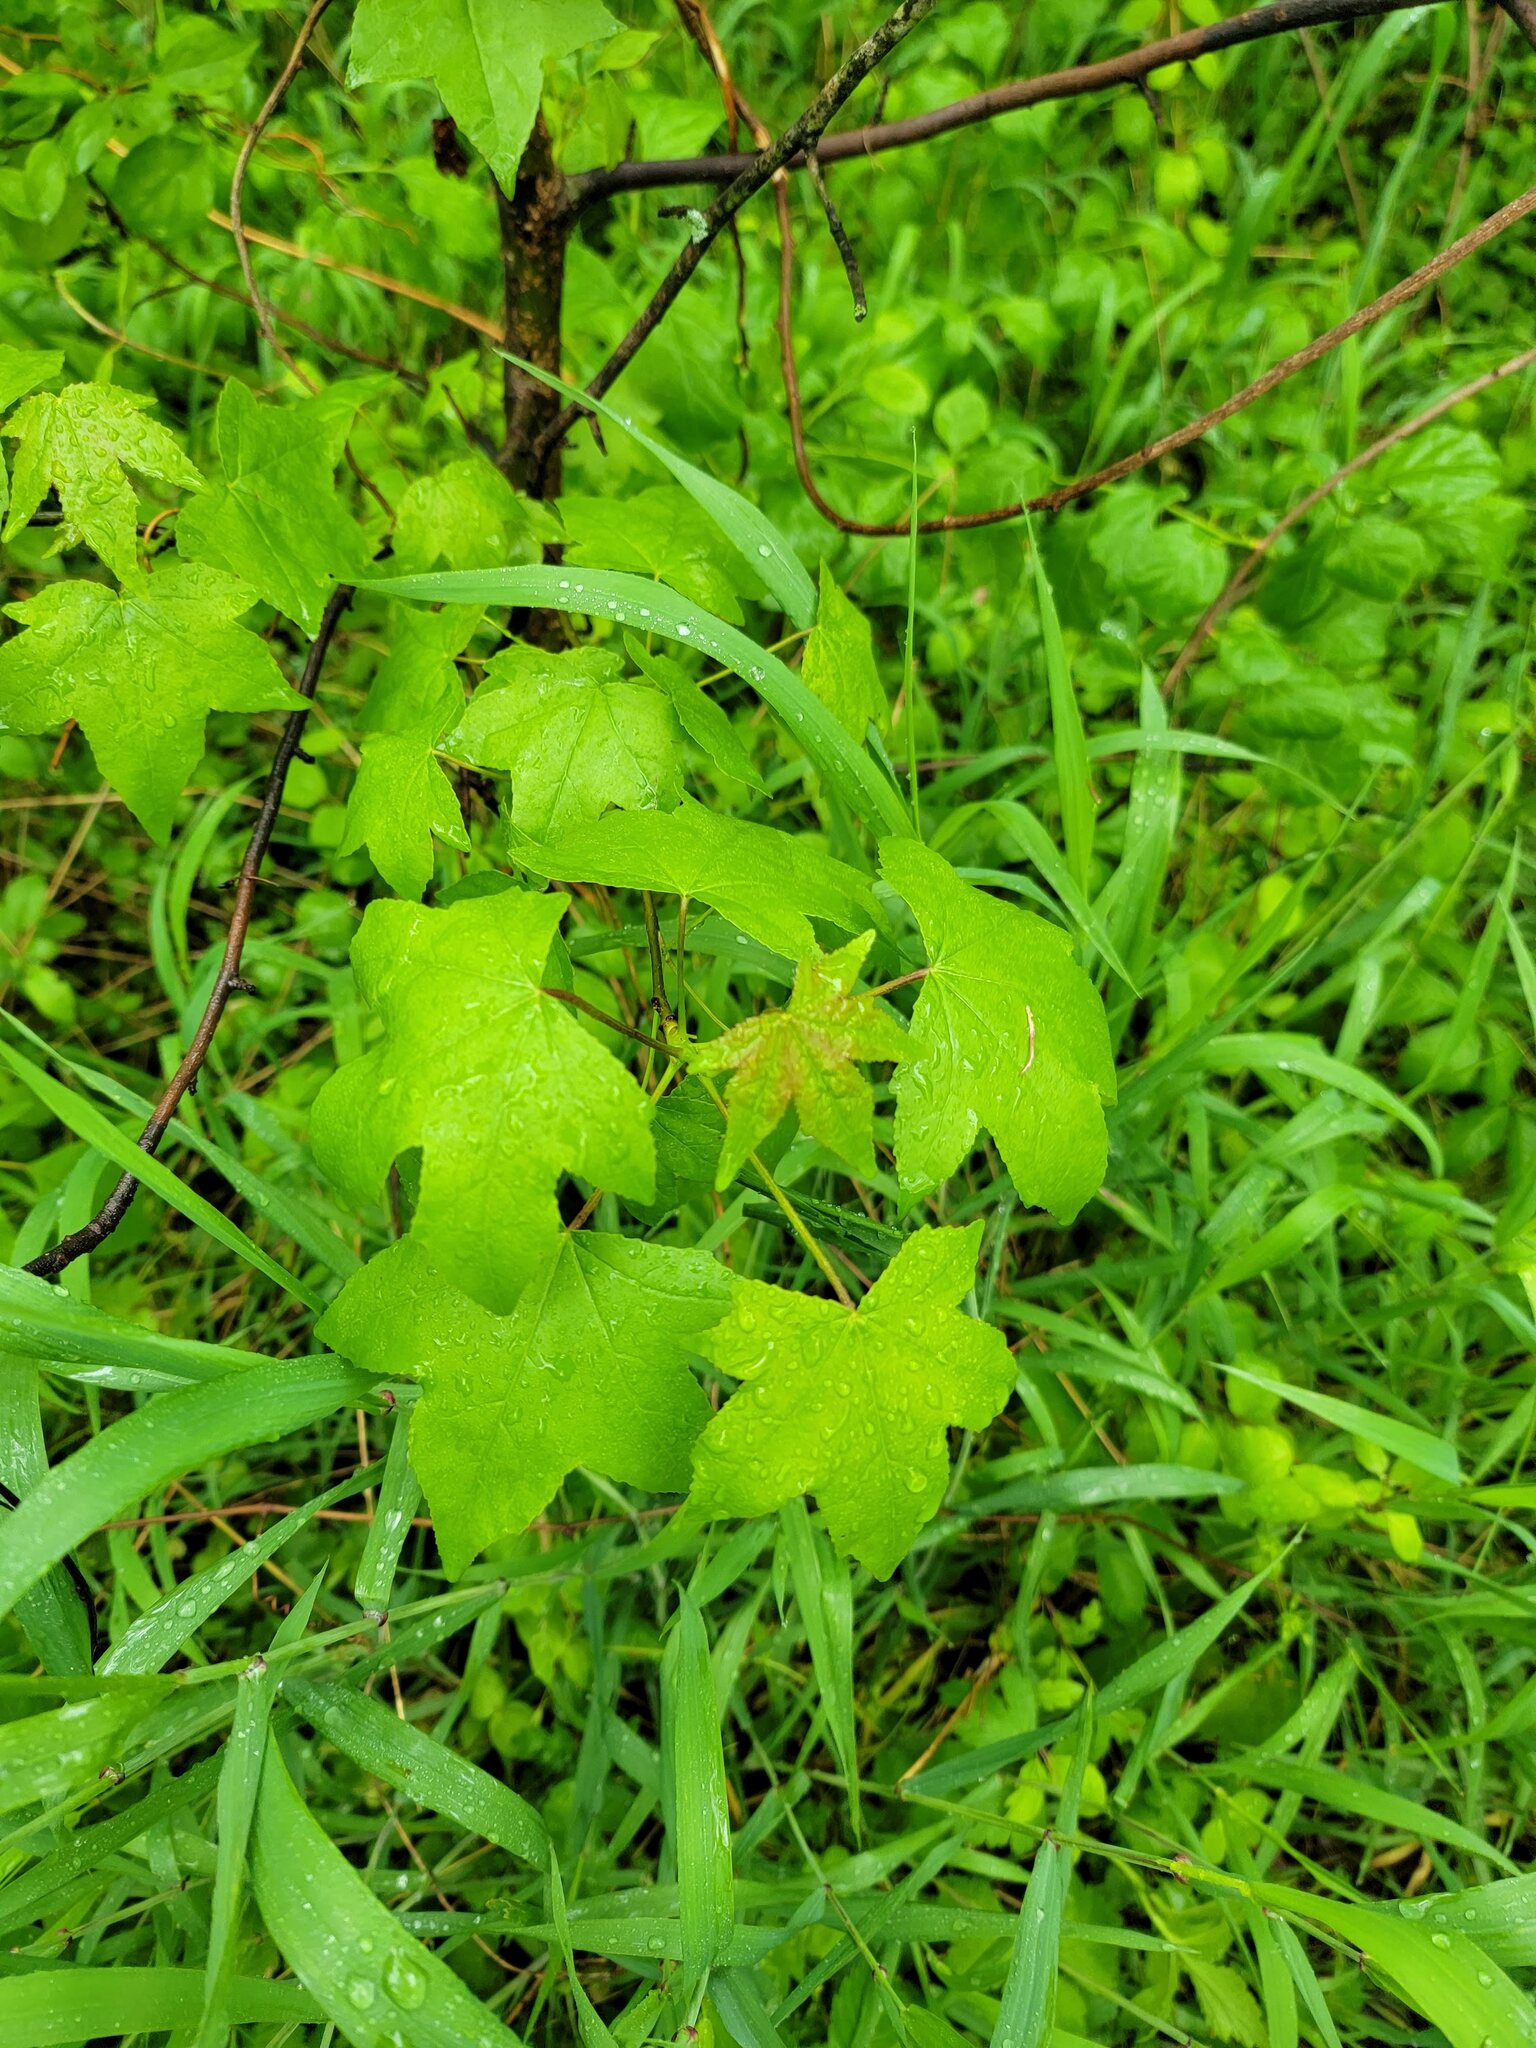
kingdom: Plantae
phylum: Tracheophyta
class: Magnoliopsida
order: Saxifragales
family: Altingiaceae
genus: Liquidambar
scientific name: Liquidambar styraciflua
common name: Sweet gum
